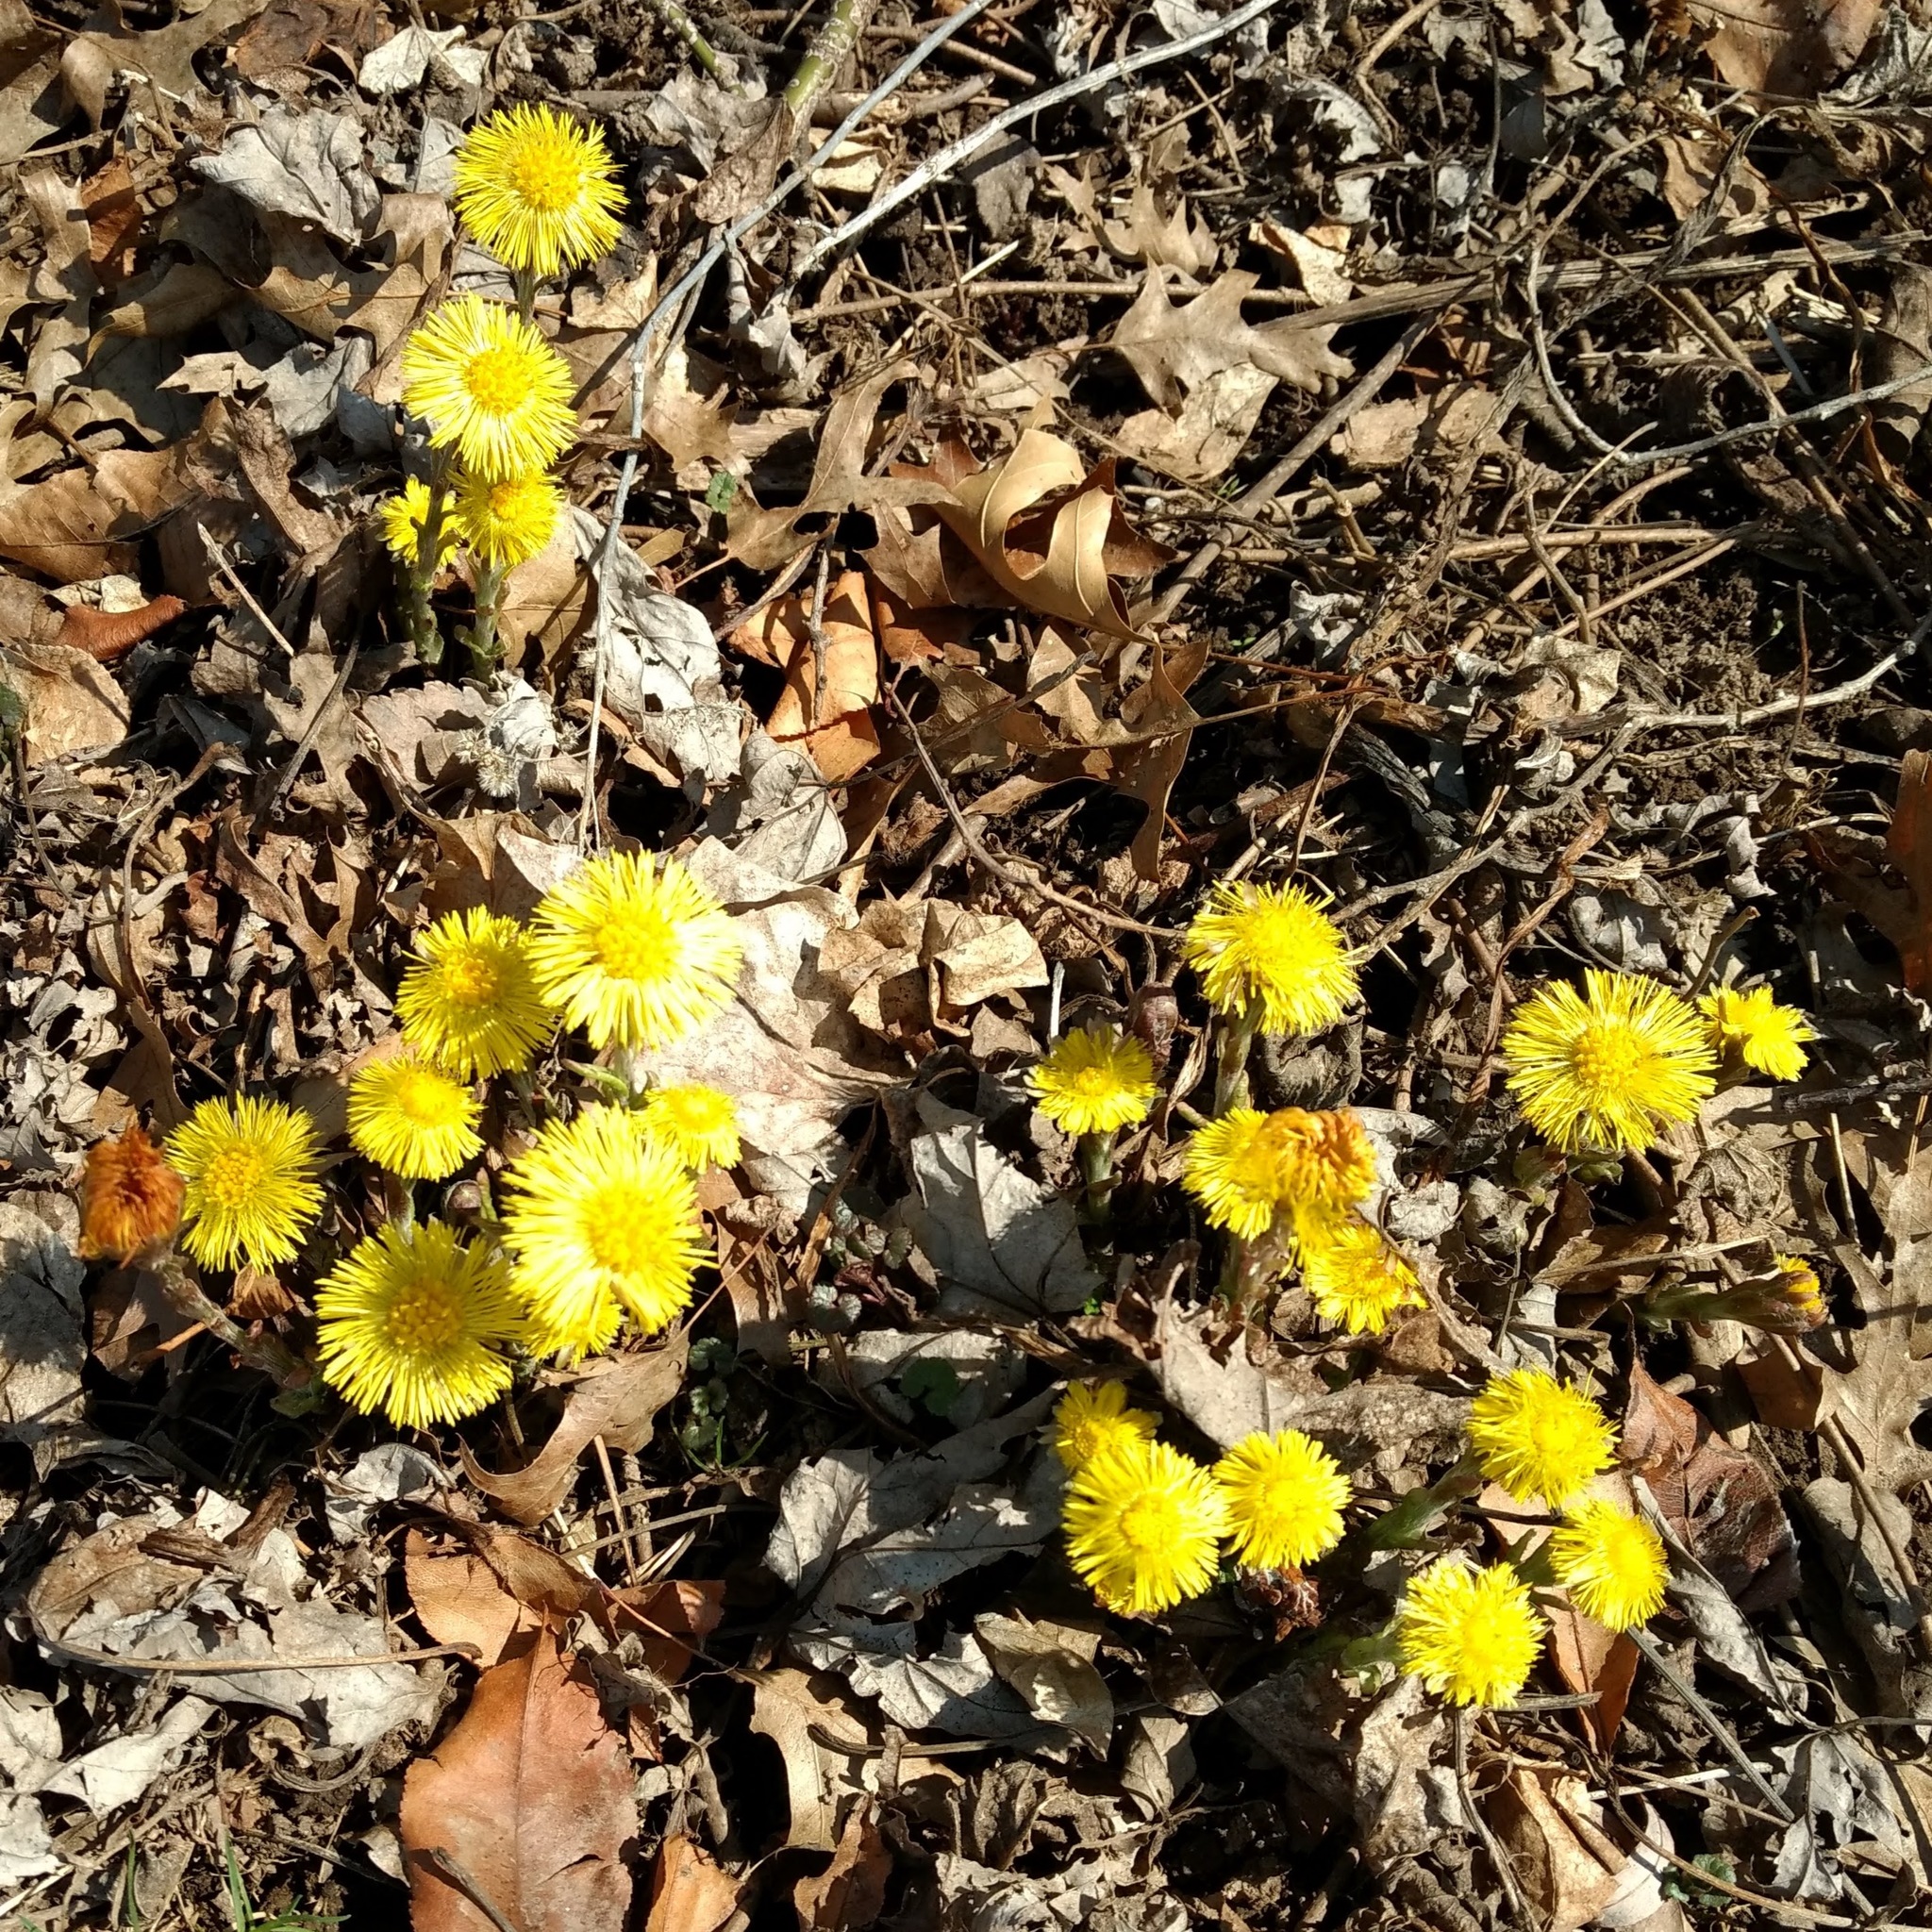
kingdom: Plantae
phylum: Tracheophyta
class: Magnoliopsida
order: Asterales
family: Asteraceae
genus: Tussilago
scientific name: Tussilago farfara
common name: Coltsfoot
